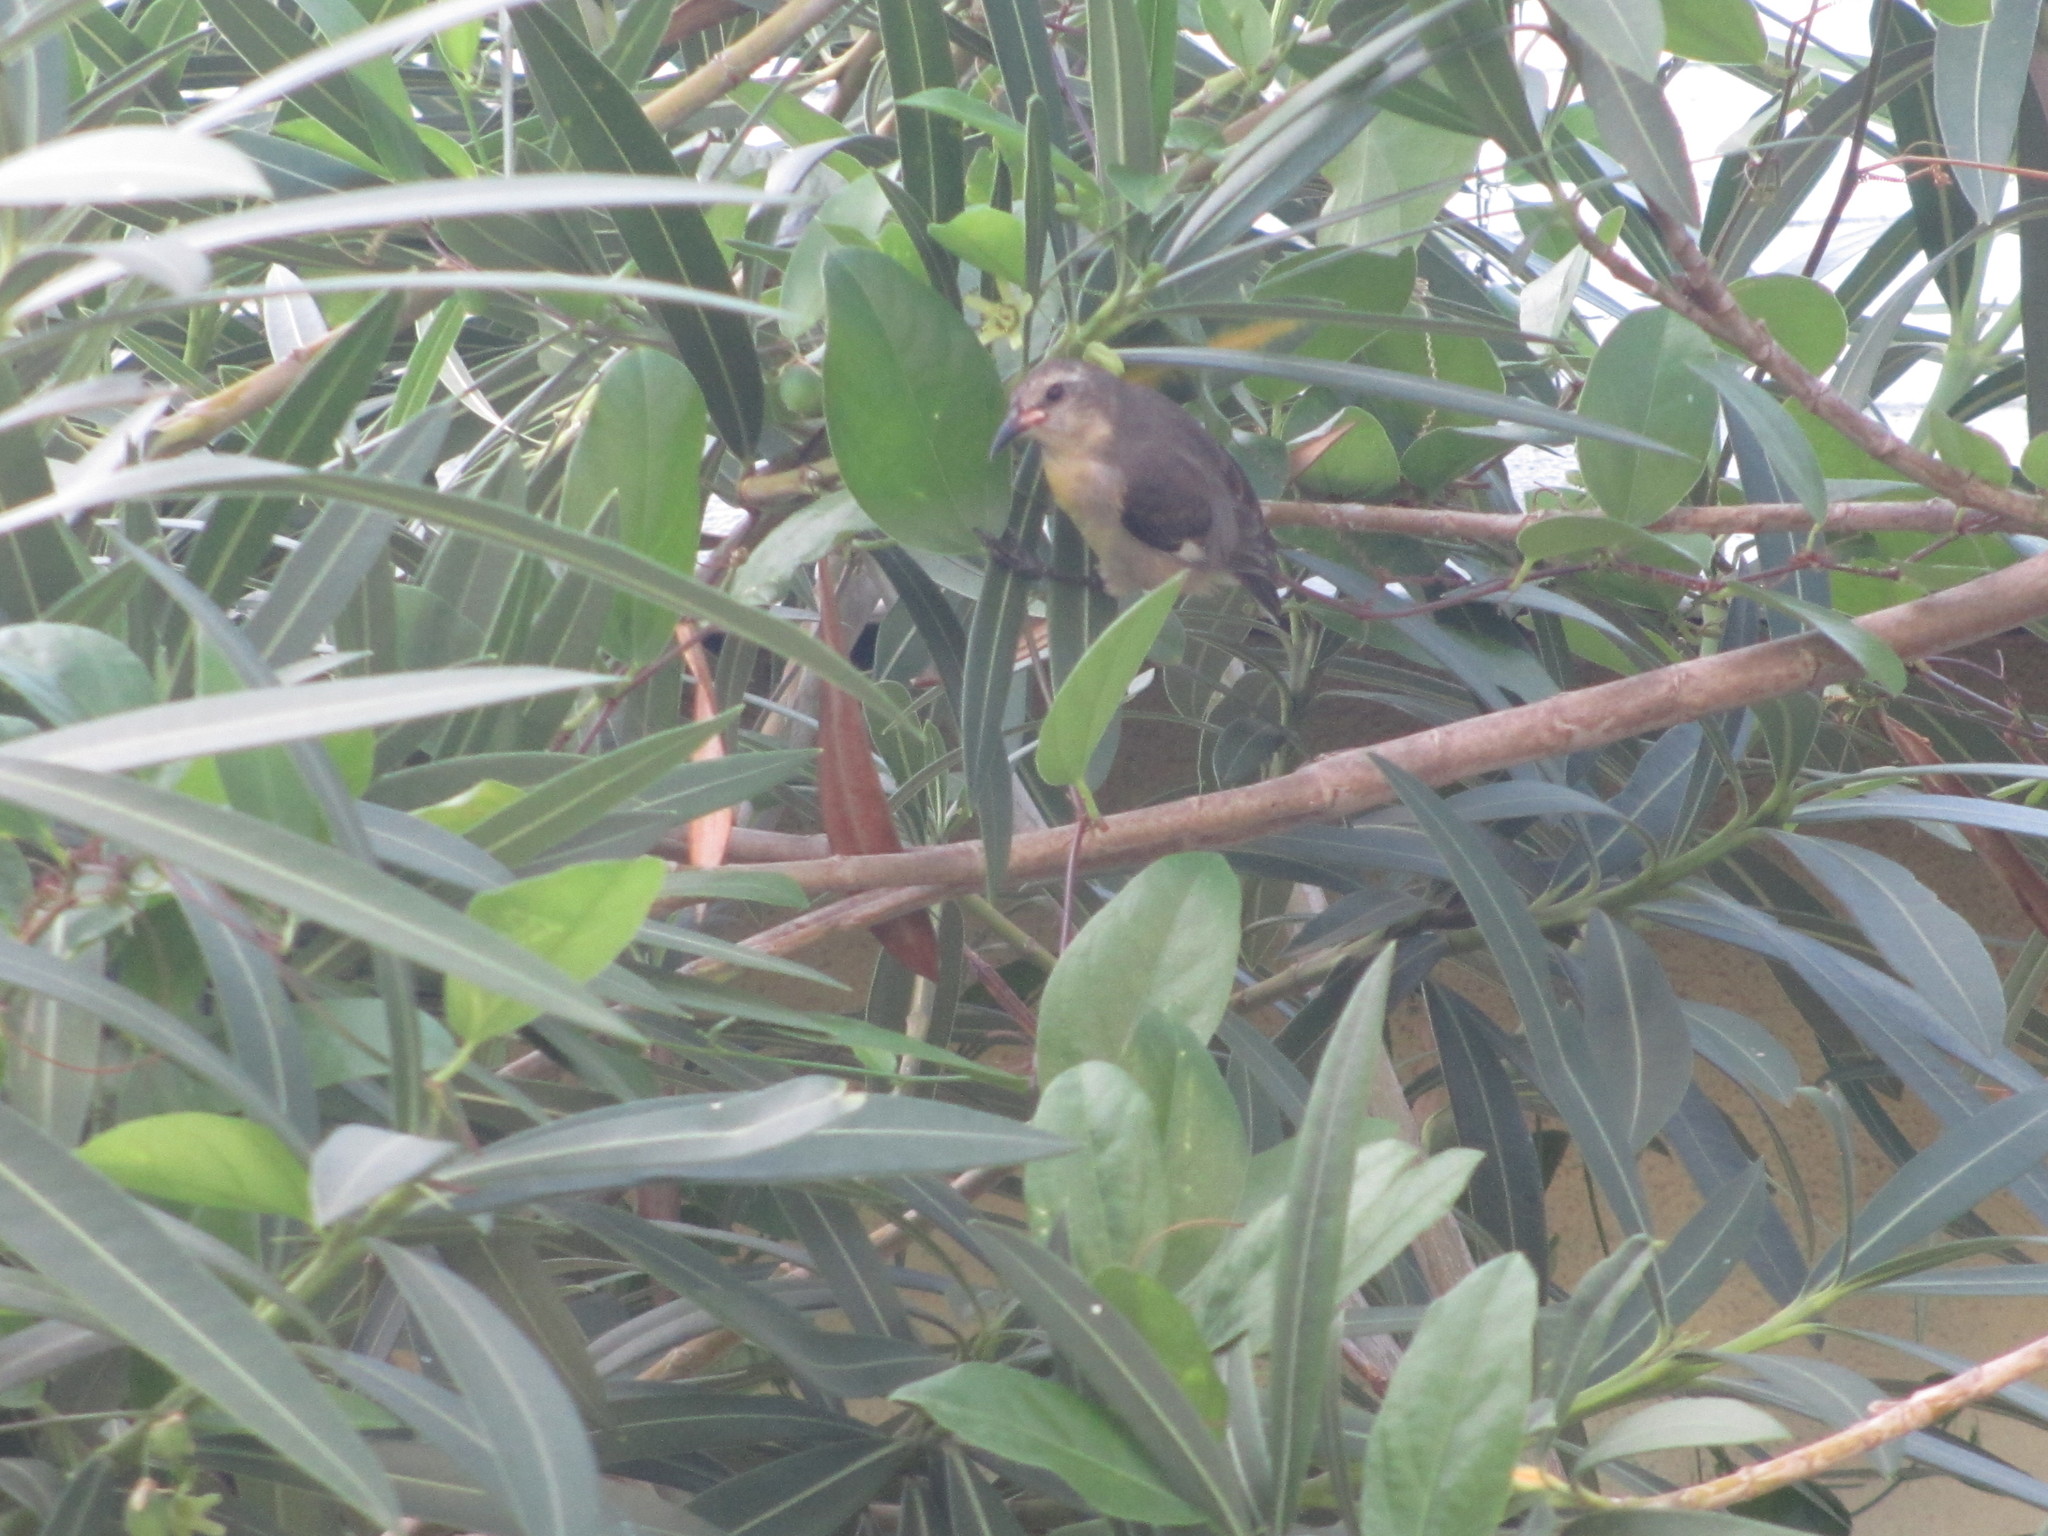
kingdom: Animalia
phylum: Chordata
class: Aves
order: Passeriformes
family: Thraupidae
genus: Coereba
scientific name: Coereba flaveola
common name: Bananaquit
